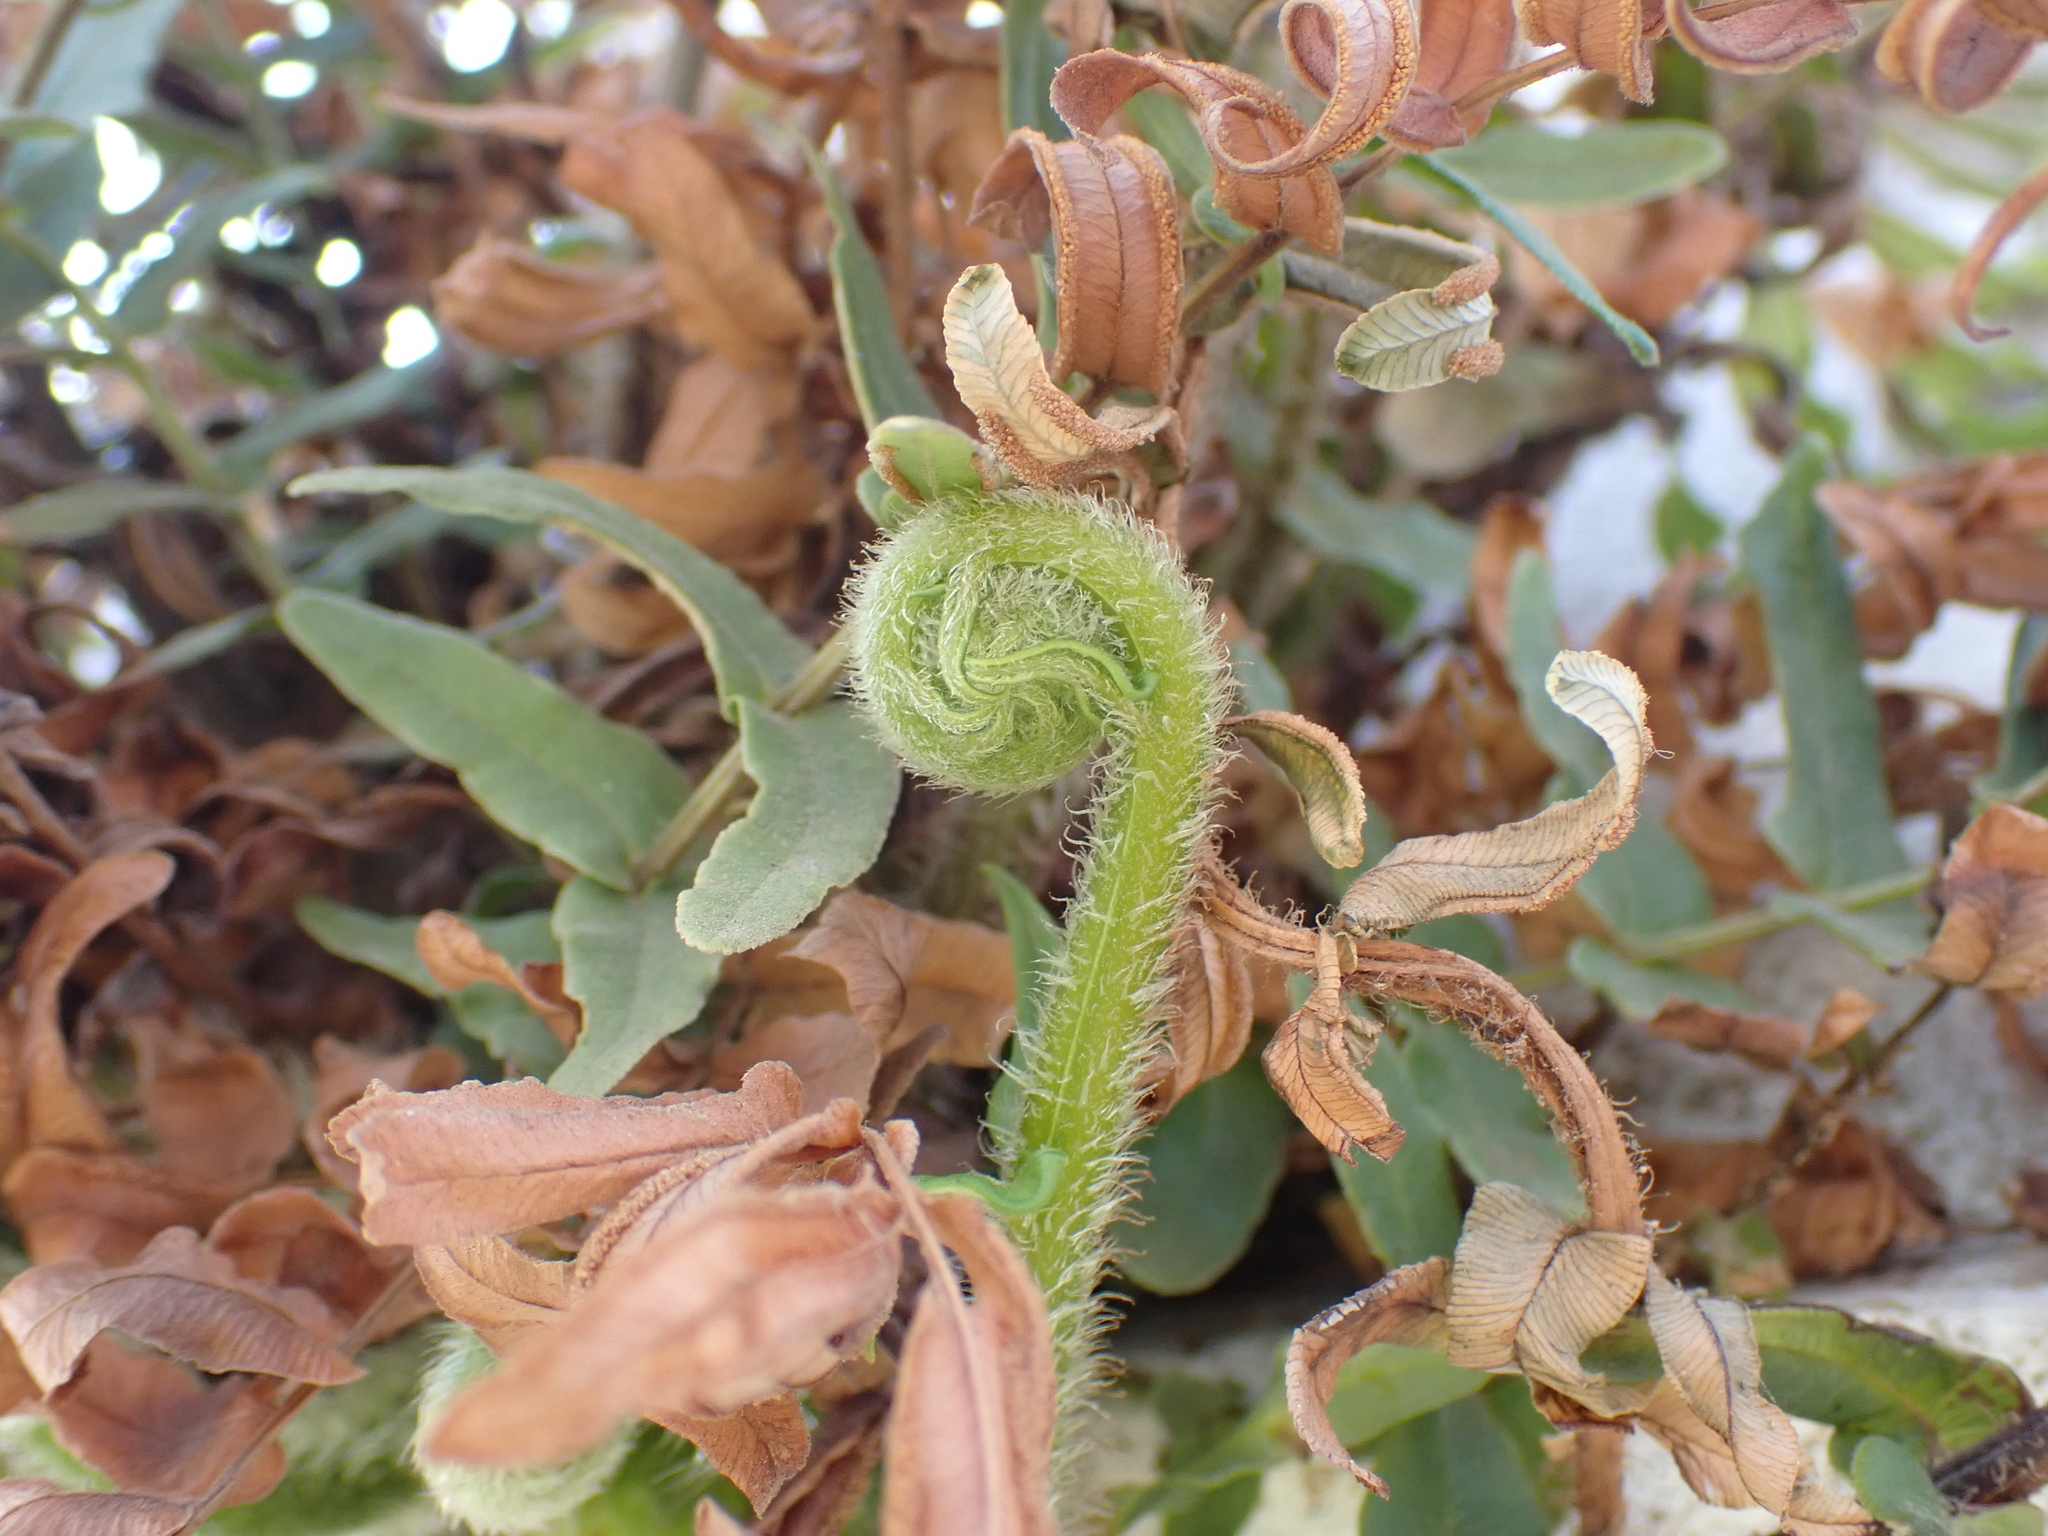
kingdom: Plantae
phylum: Tracheophyta
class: Polypodiopsida
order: Polypodiales
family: Pteridaceae
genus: Pteris
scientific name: Pteris vittata
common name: Ladder brake
